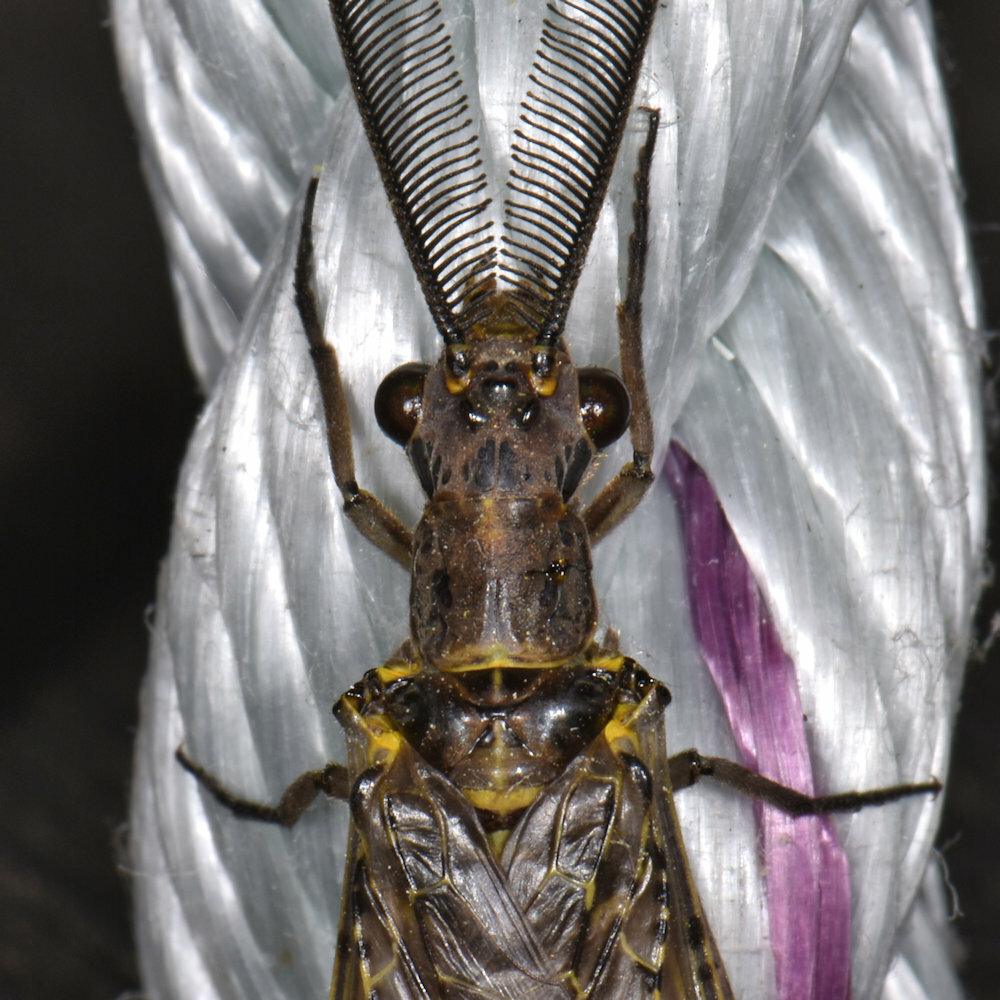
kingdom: Animalia
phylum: Arthropoda
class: Insecta
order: Megaloptera
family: Corydalidae
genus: Chauliodes
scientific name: Chauliodes rastricornis
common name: Spring fishfly
